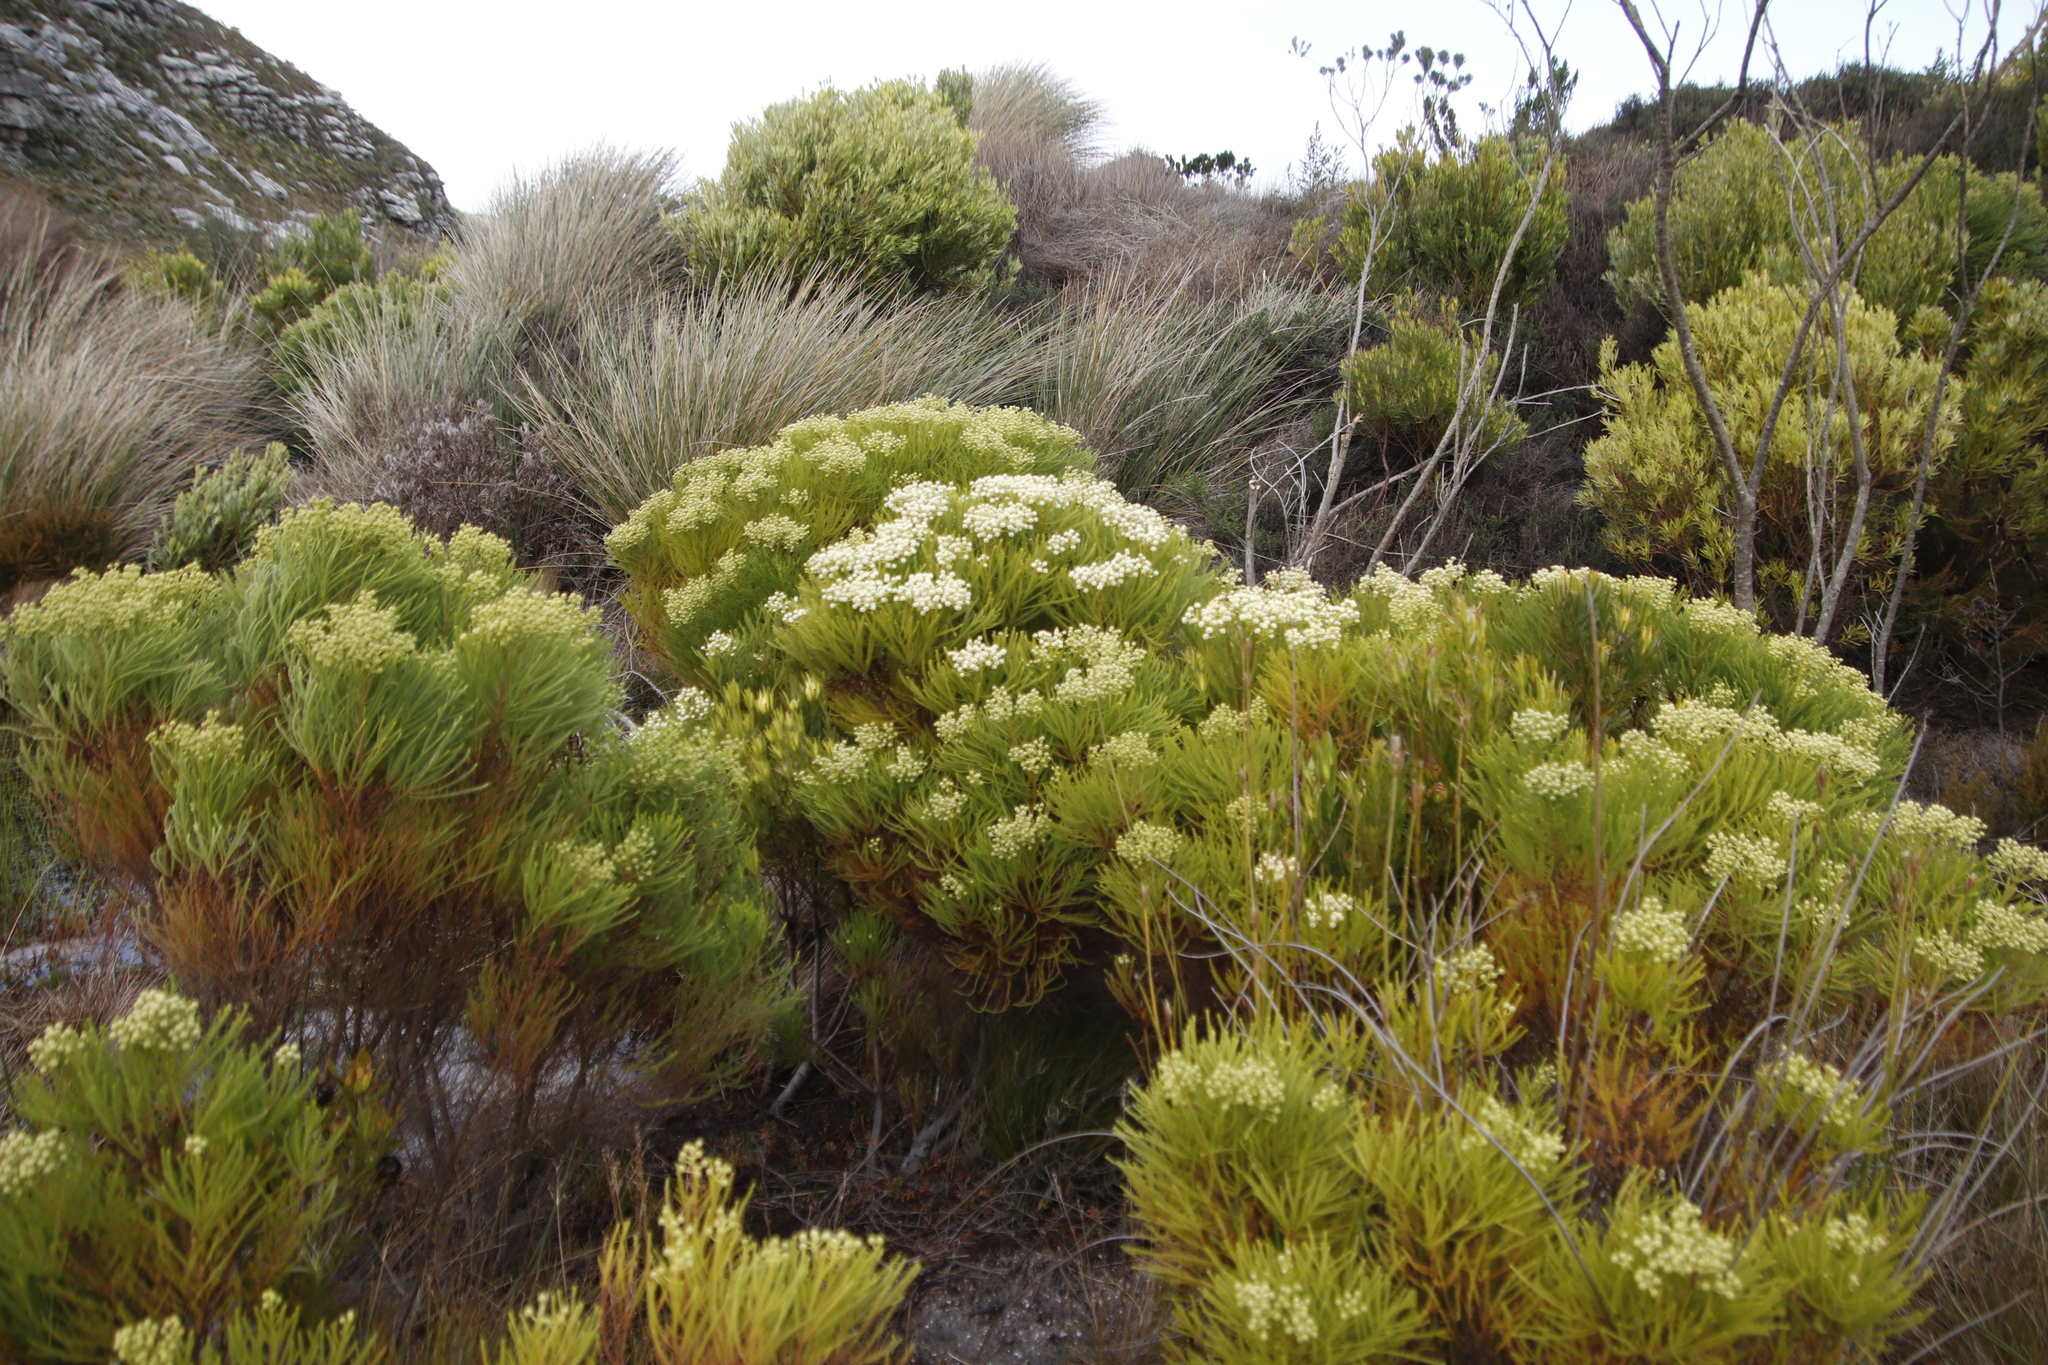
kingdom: Plantae
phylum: Tracheophyta
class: Magnoliopsida
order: Bruniales
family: Bruniaceae
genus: Berzelia
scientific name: Berzelia lanuginosa
